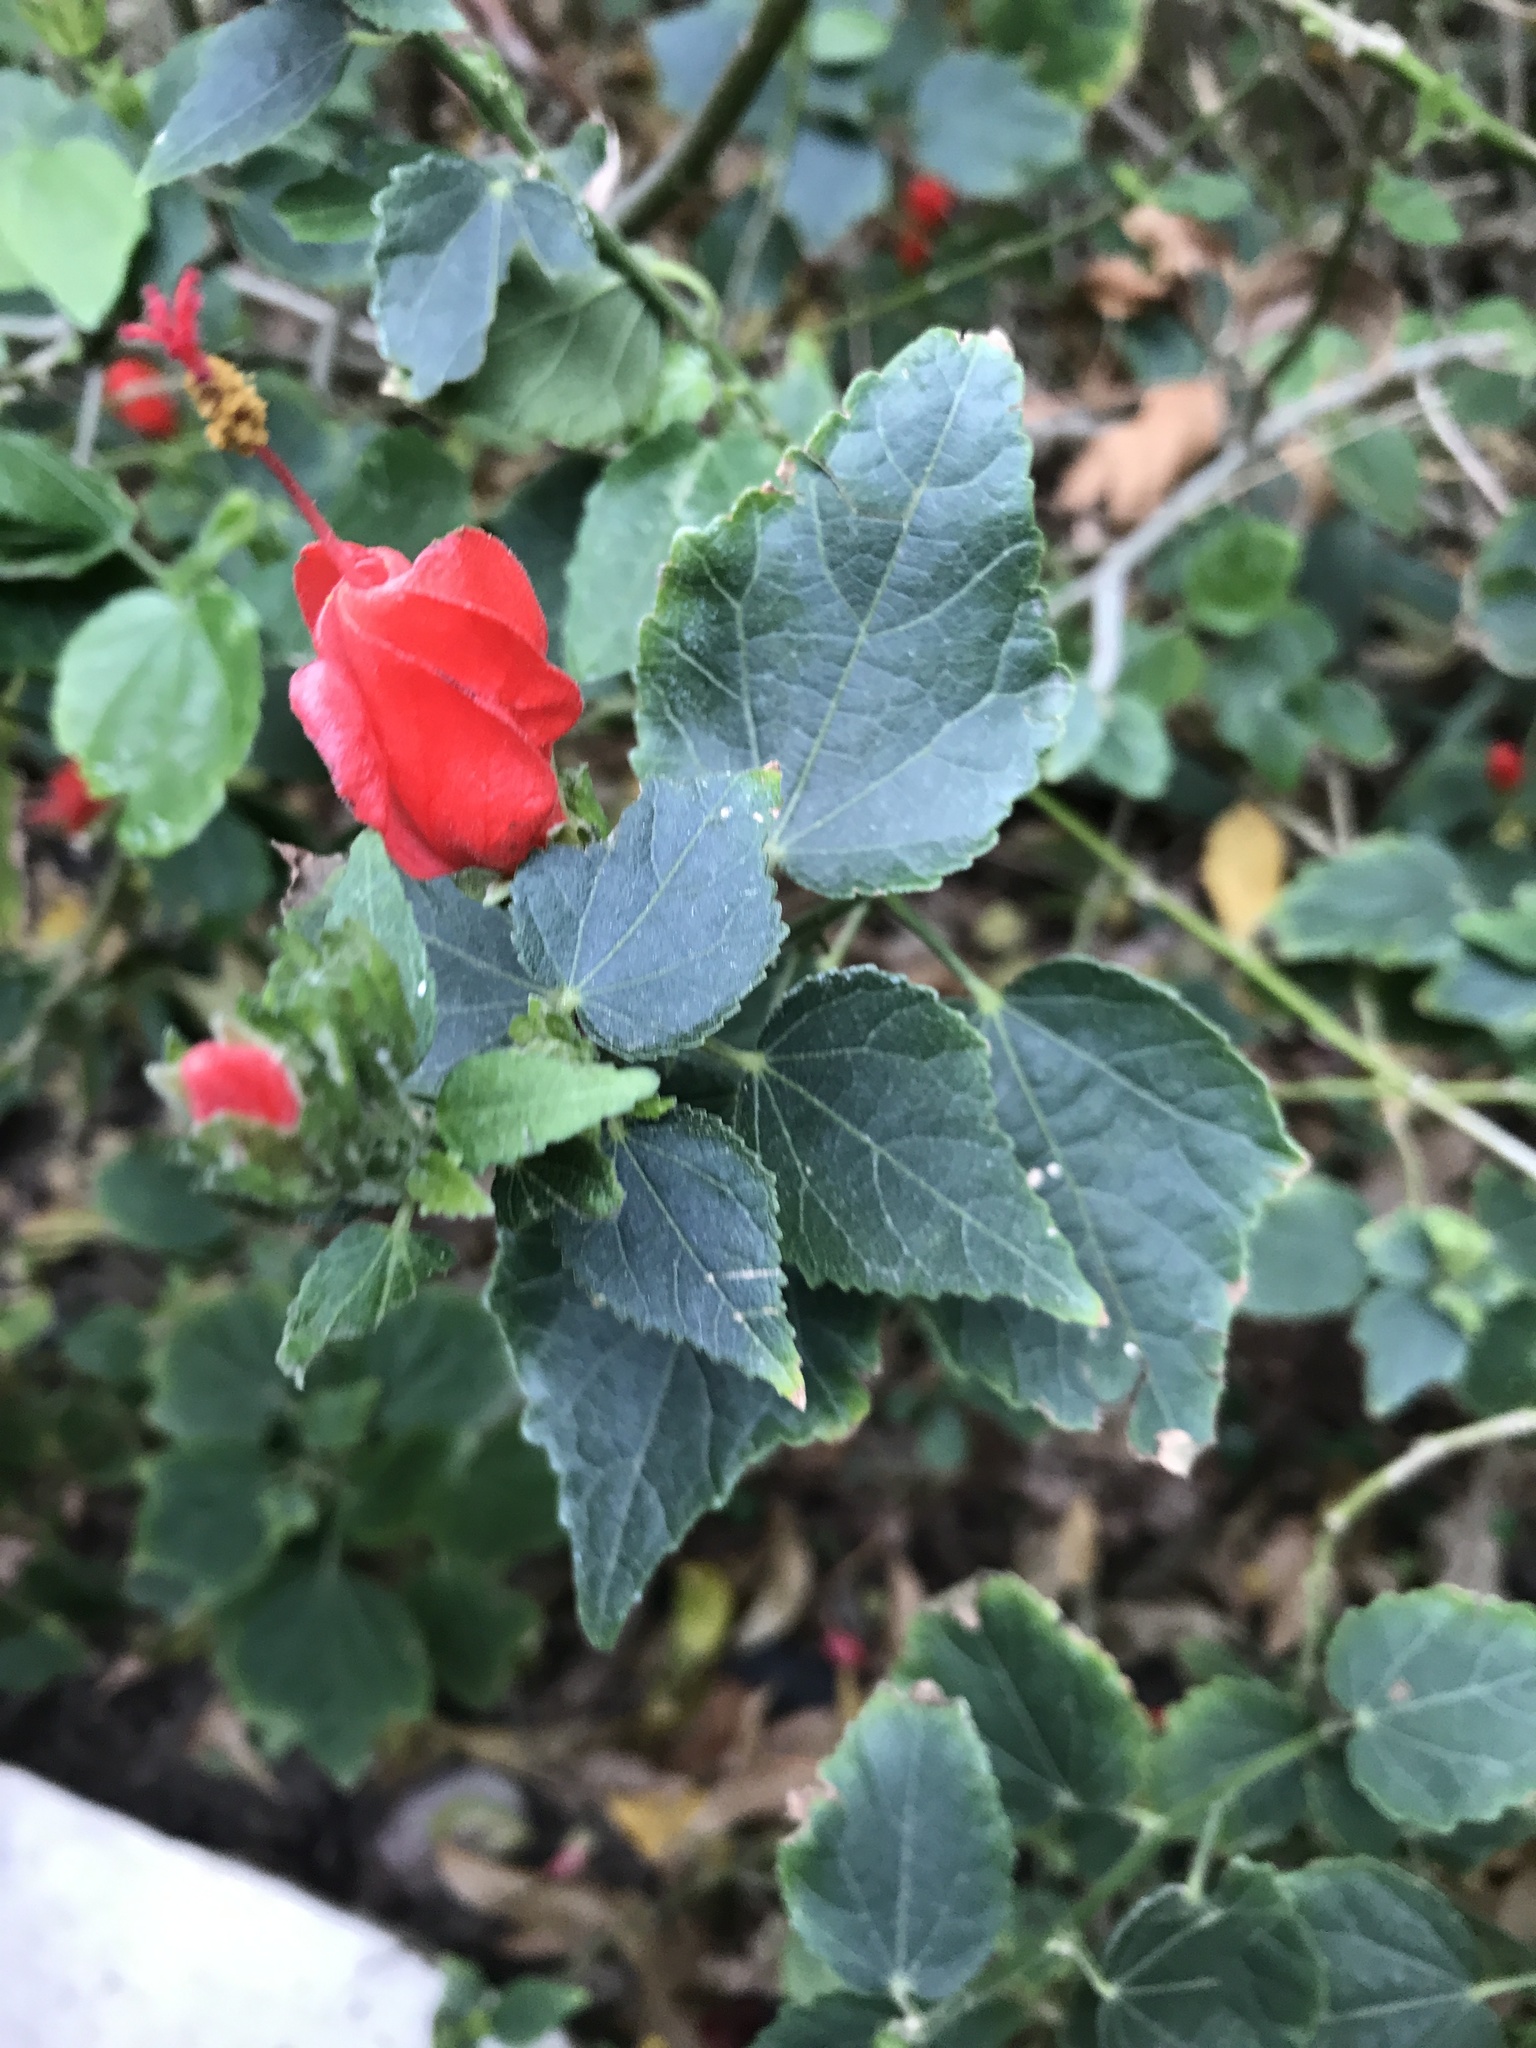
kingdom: Plantae
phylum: Tracheophyta
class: Magnoliopsida
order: Malvales
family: Malvaceae
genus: Malvaviscus
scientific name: Malvaviscus arboreus
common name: Wax mallow
